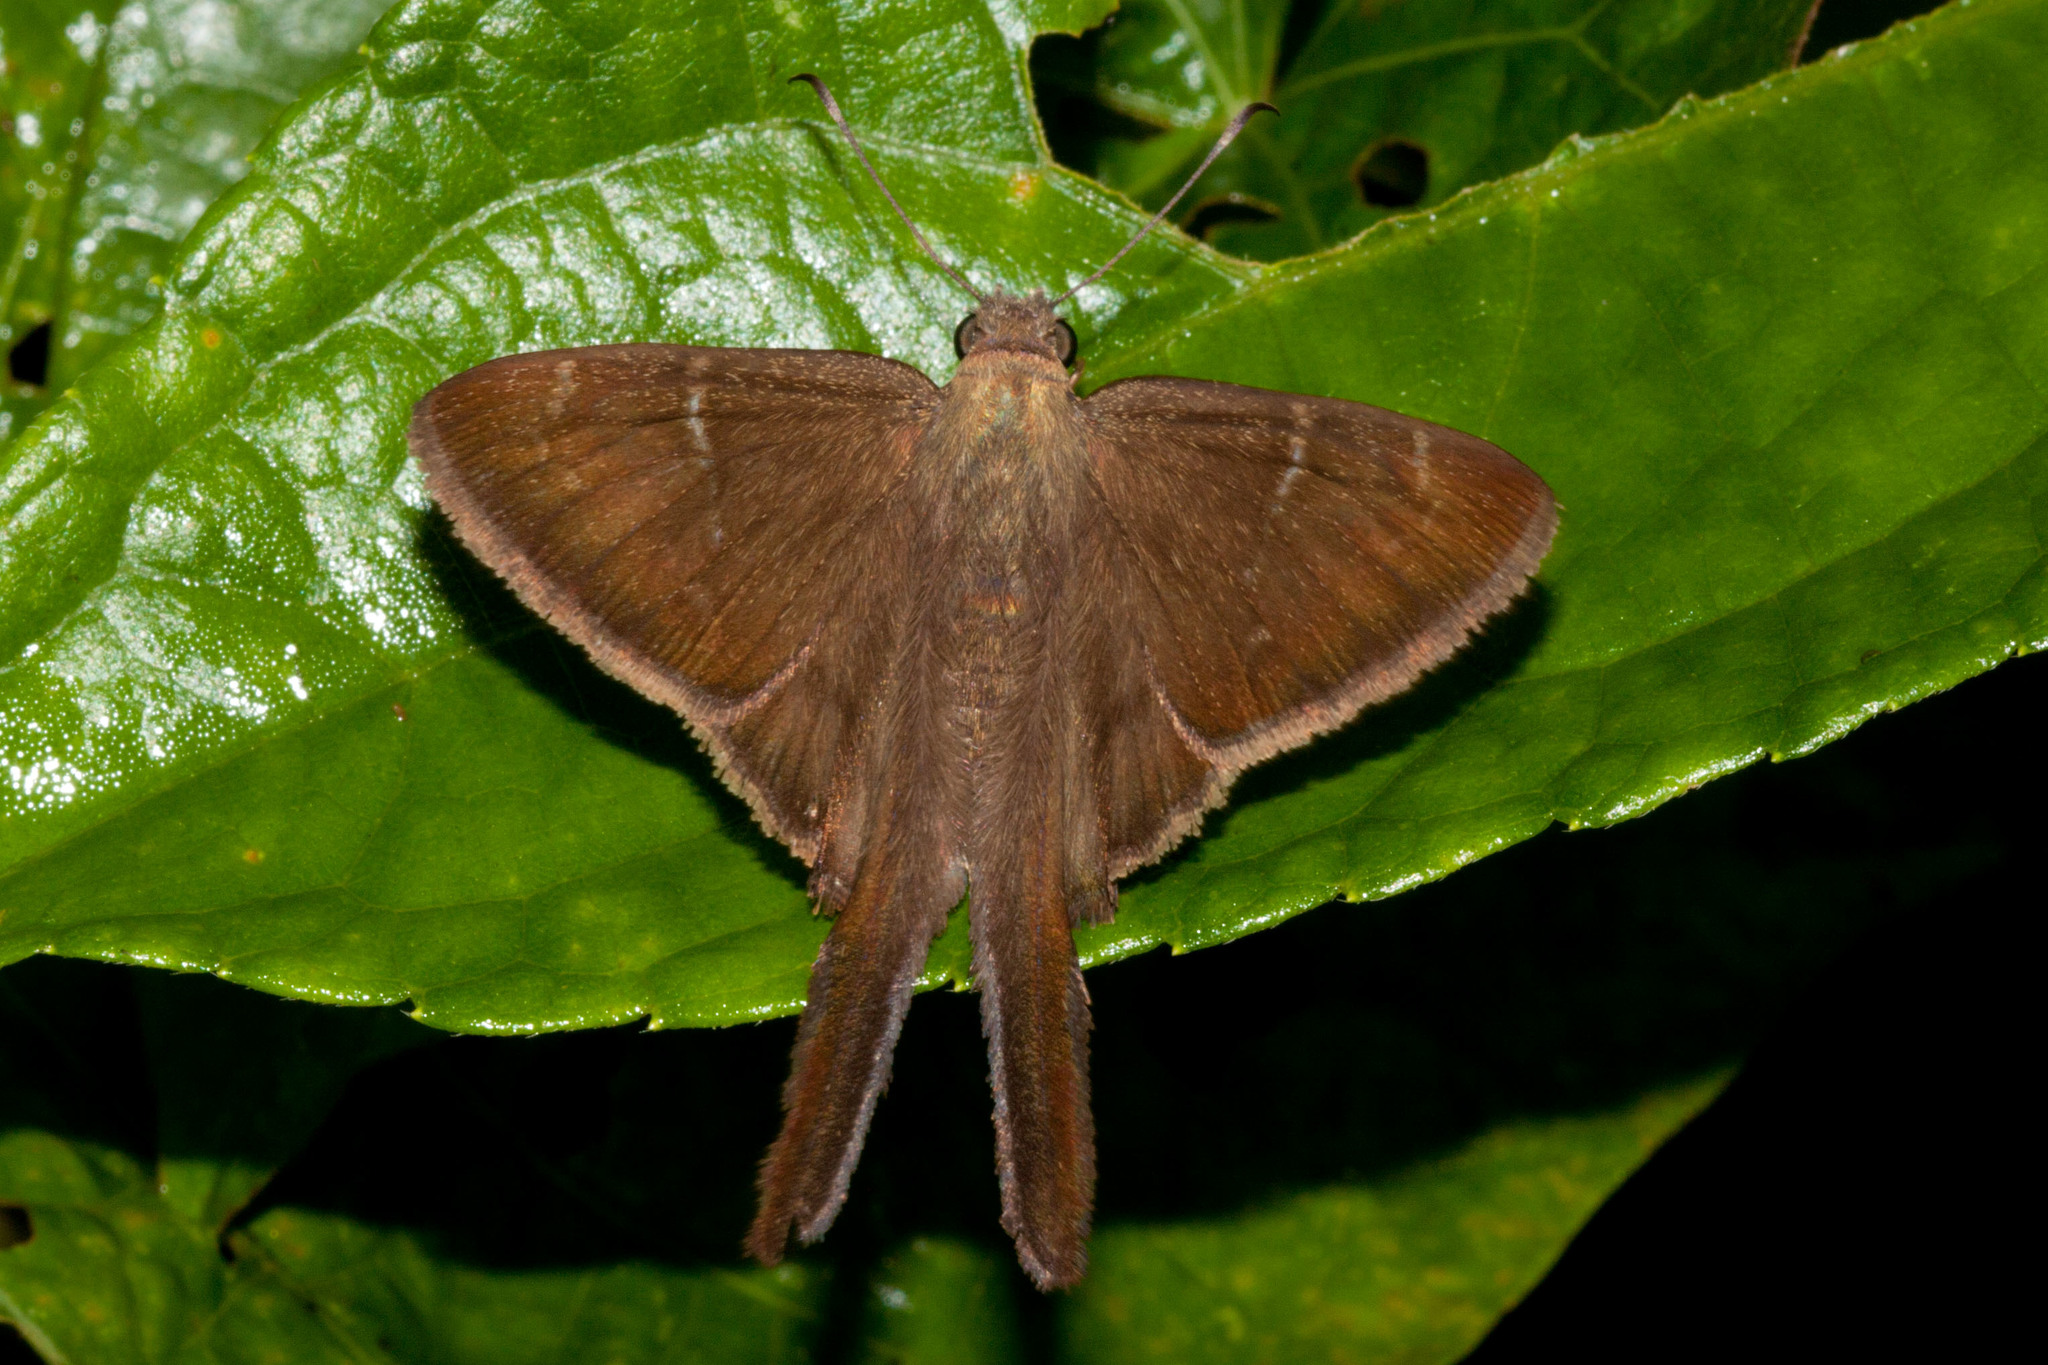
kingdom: Animalia
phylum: Arthropoda
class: Insecta
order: Lepidoptera
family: Hesperiidae
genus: Urbanus
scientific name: Urbanus simplicius
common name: Plain longtail
